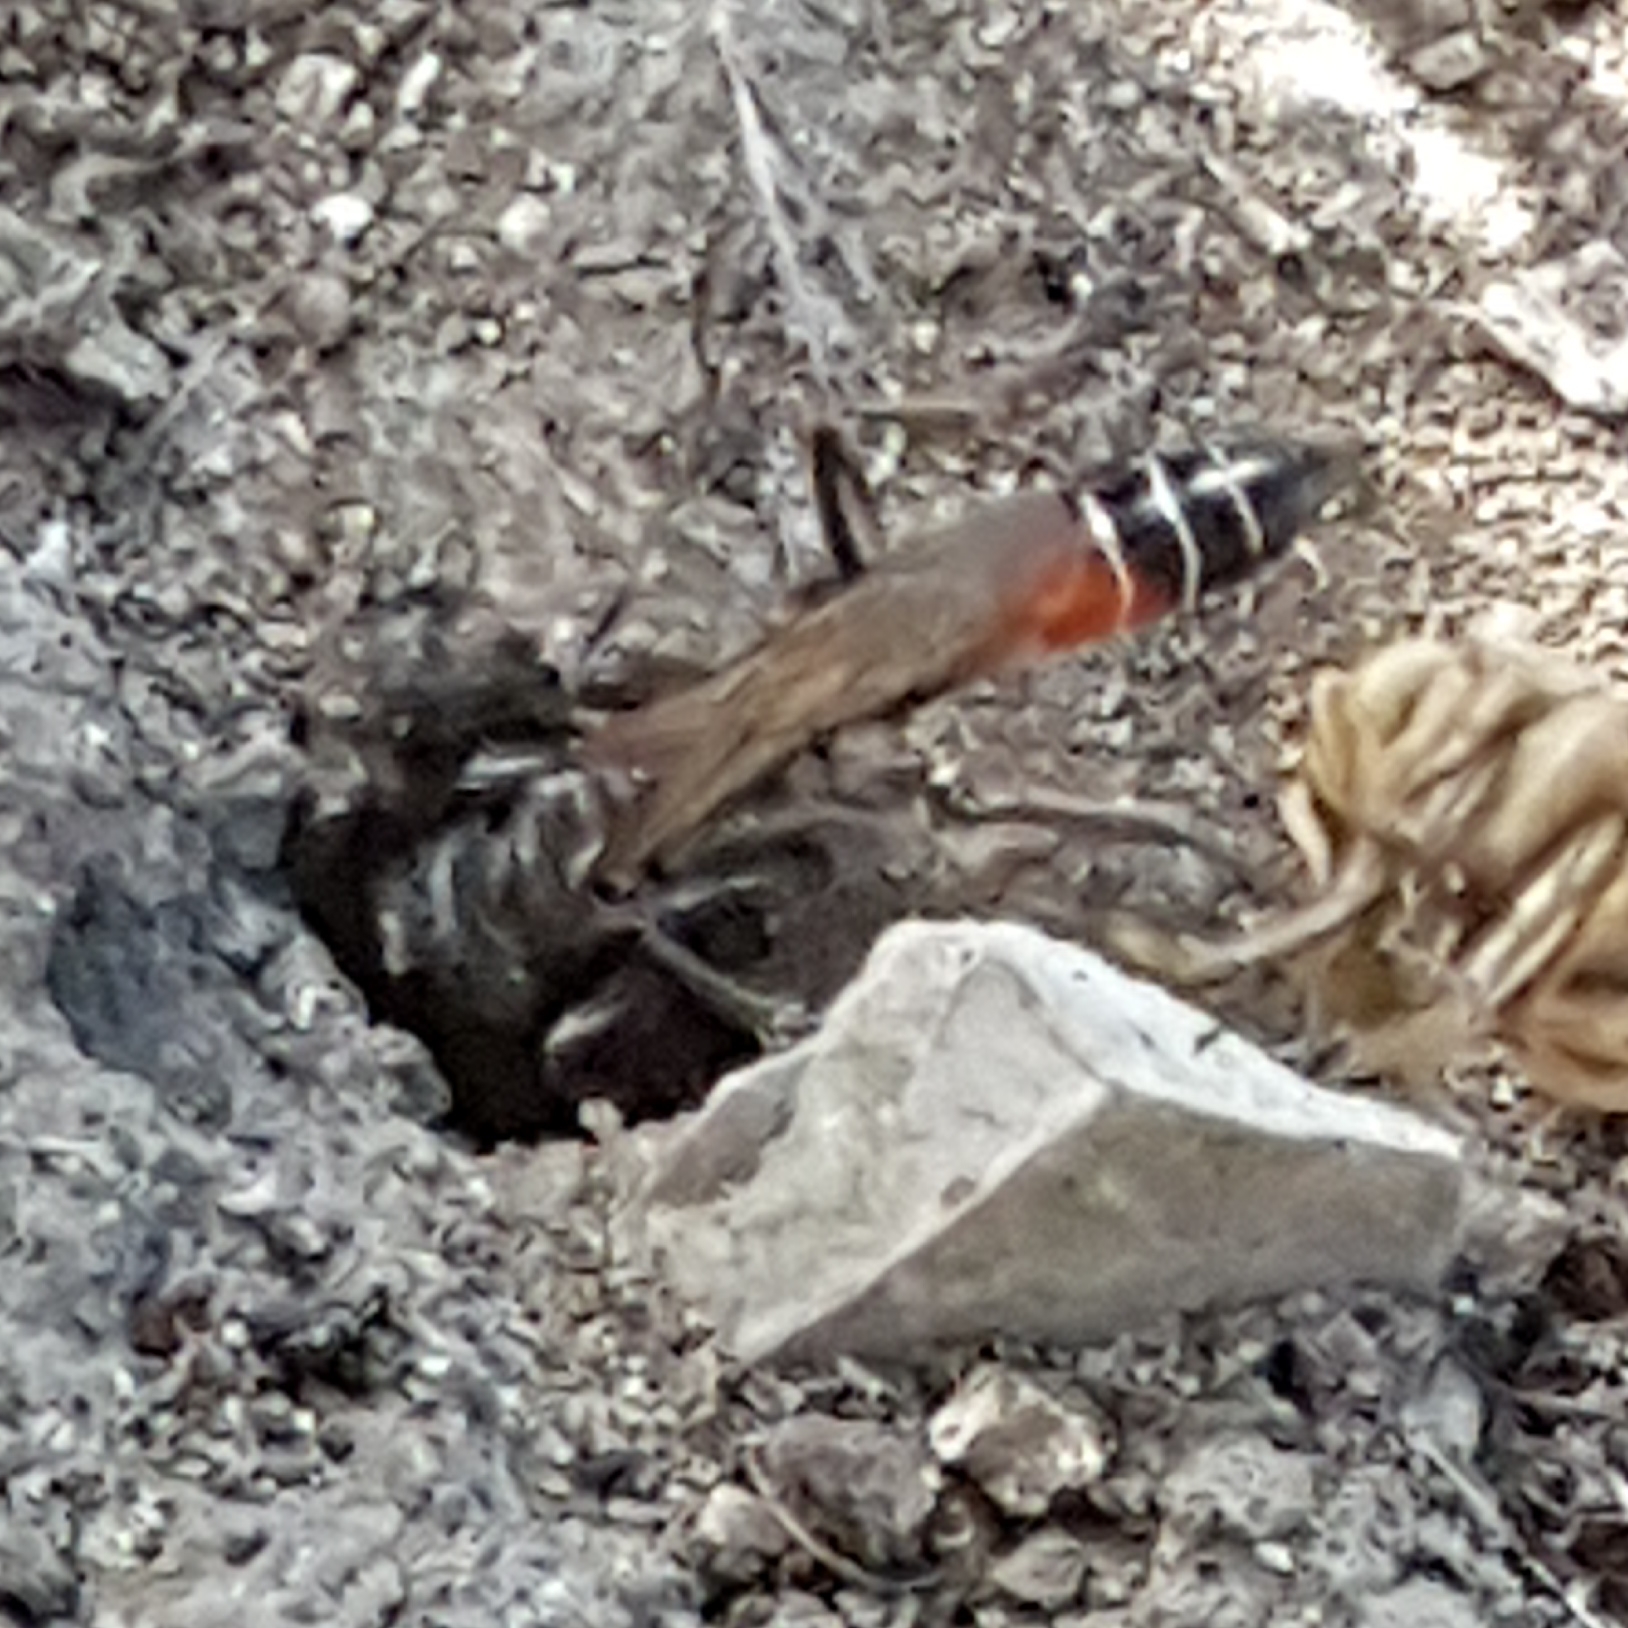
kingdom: Animalia
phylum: Arthropoda
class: Insecta
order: Hymenoptera
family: Sphecidae
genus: Prionyx
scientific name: Prionyx kirbii
